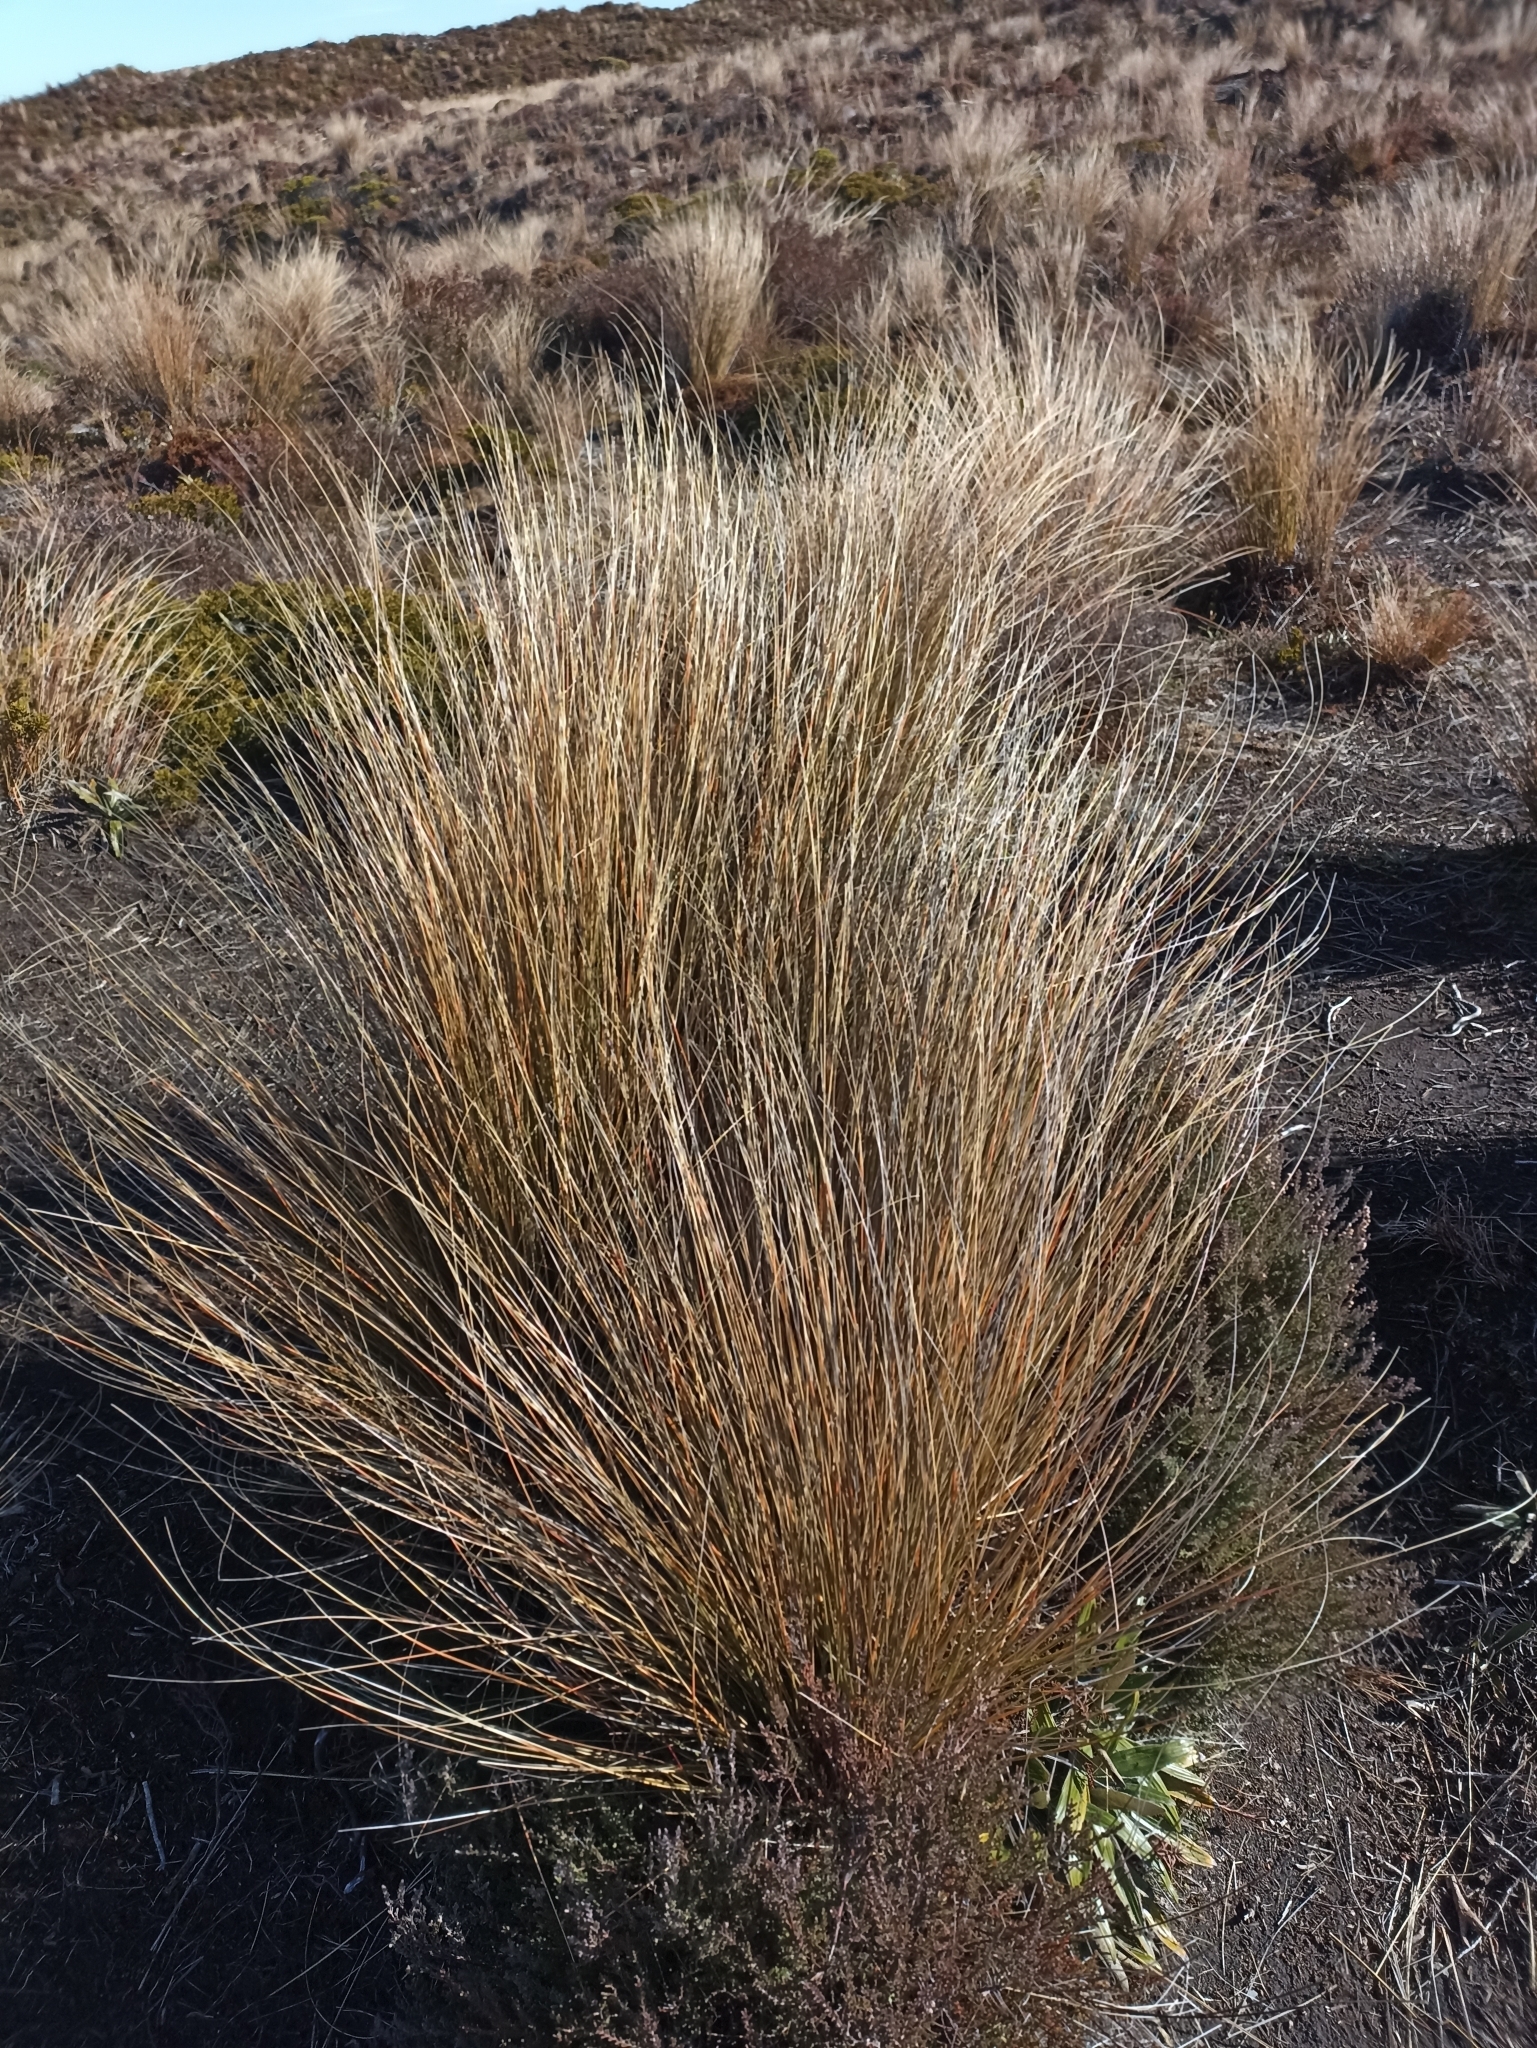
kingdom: Plantae
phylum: Tracheophyta
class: Liliopsida
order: Poales
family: Poaceae
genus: Chionochloa
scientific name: Chionochloa rubra
